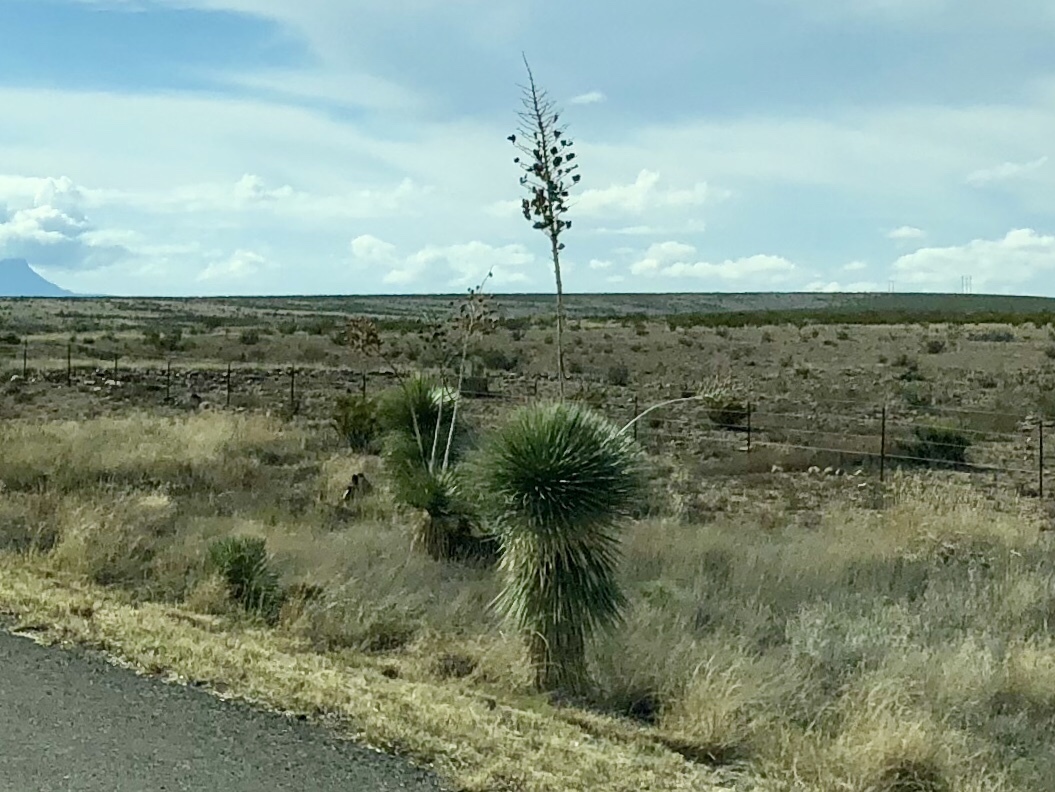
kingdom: Plantae
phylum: Tracheophyta
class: Liliopsida
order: Asparagales
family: Asparagaceae
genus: Yucca
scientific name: Yucca elata
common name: Palmella
